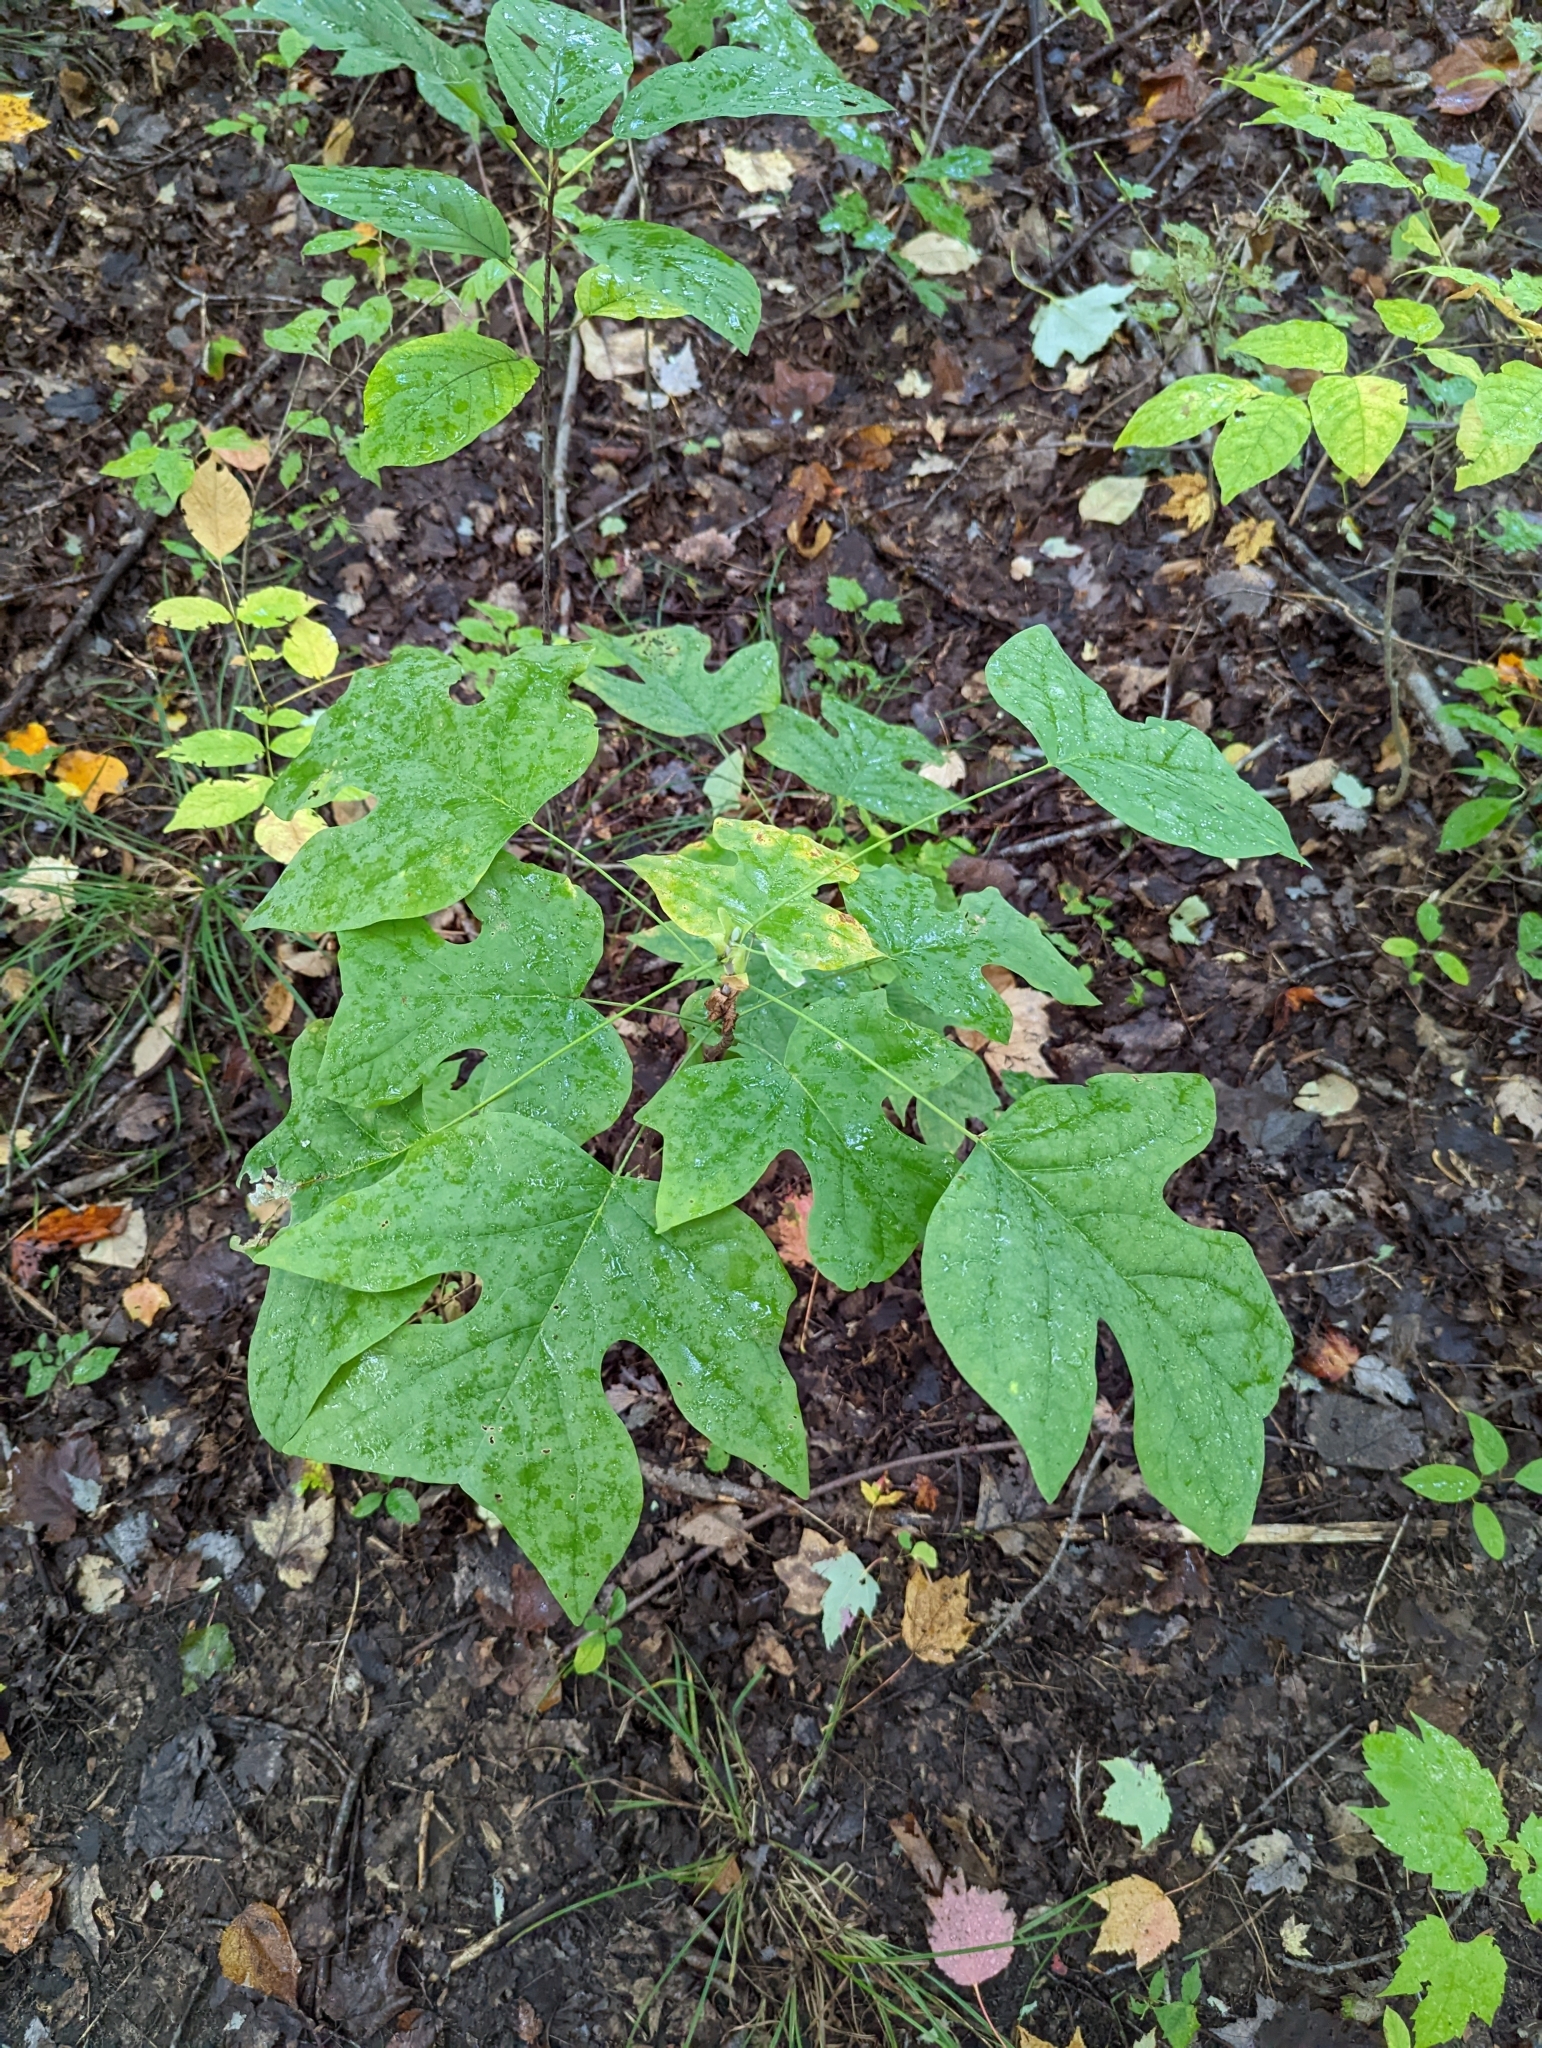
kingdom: Plantae
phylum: Tracheophyta
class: Magnoliopsida
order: Magnoliales
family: Magnoliaceae
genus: Liriodendron
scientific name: Liriodendron tulipifera
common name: Tulip tree
